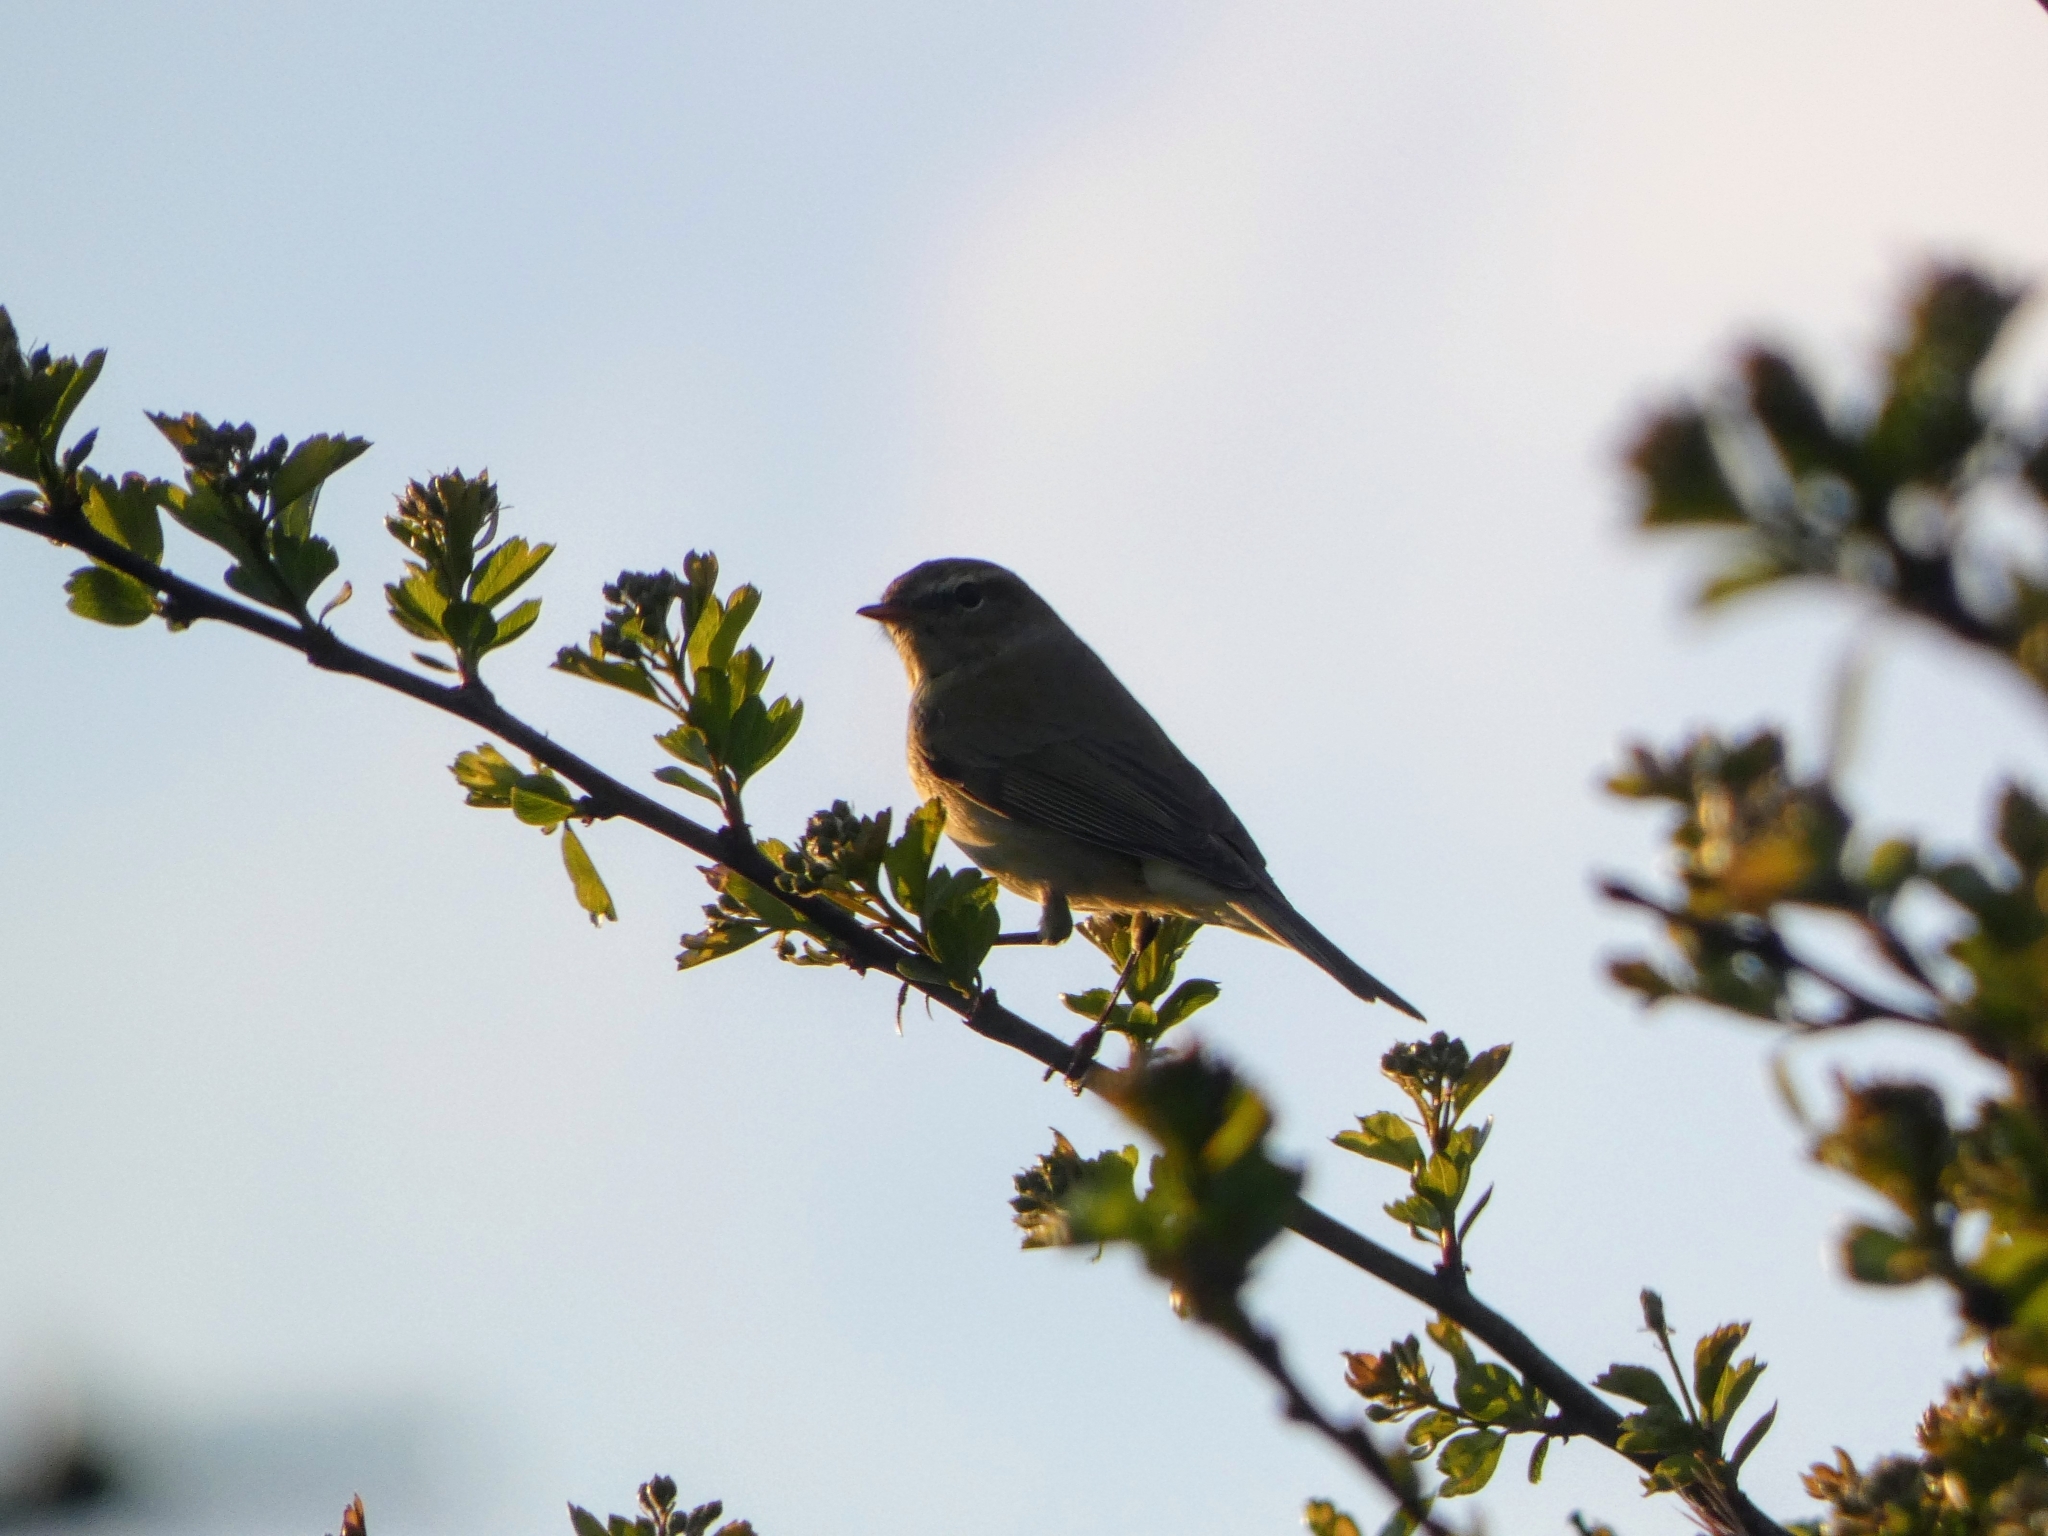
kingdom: Animalia
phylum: Chordata
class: Aves
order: Passeriformes
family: Phylloscopidae
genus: Phylloscopus
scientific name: Phylloscopus collybita
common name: Common chiffchaff
